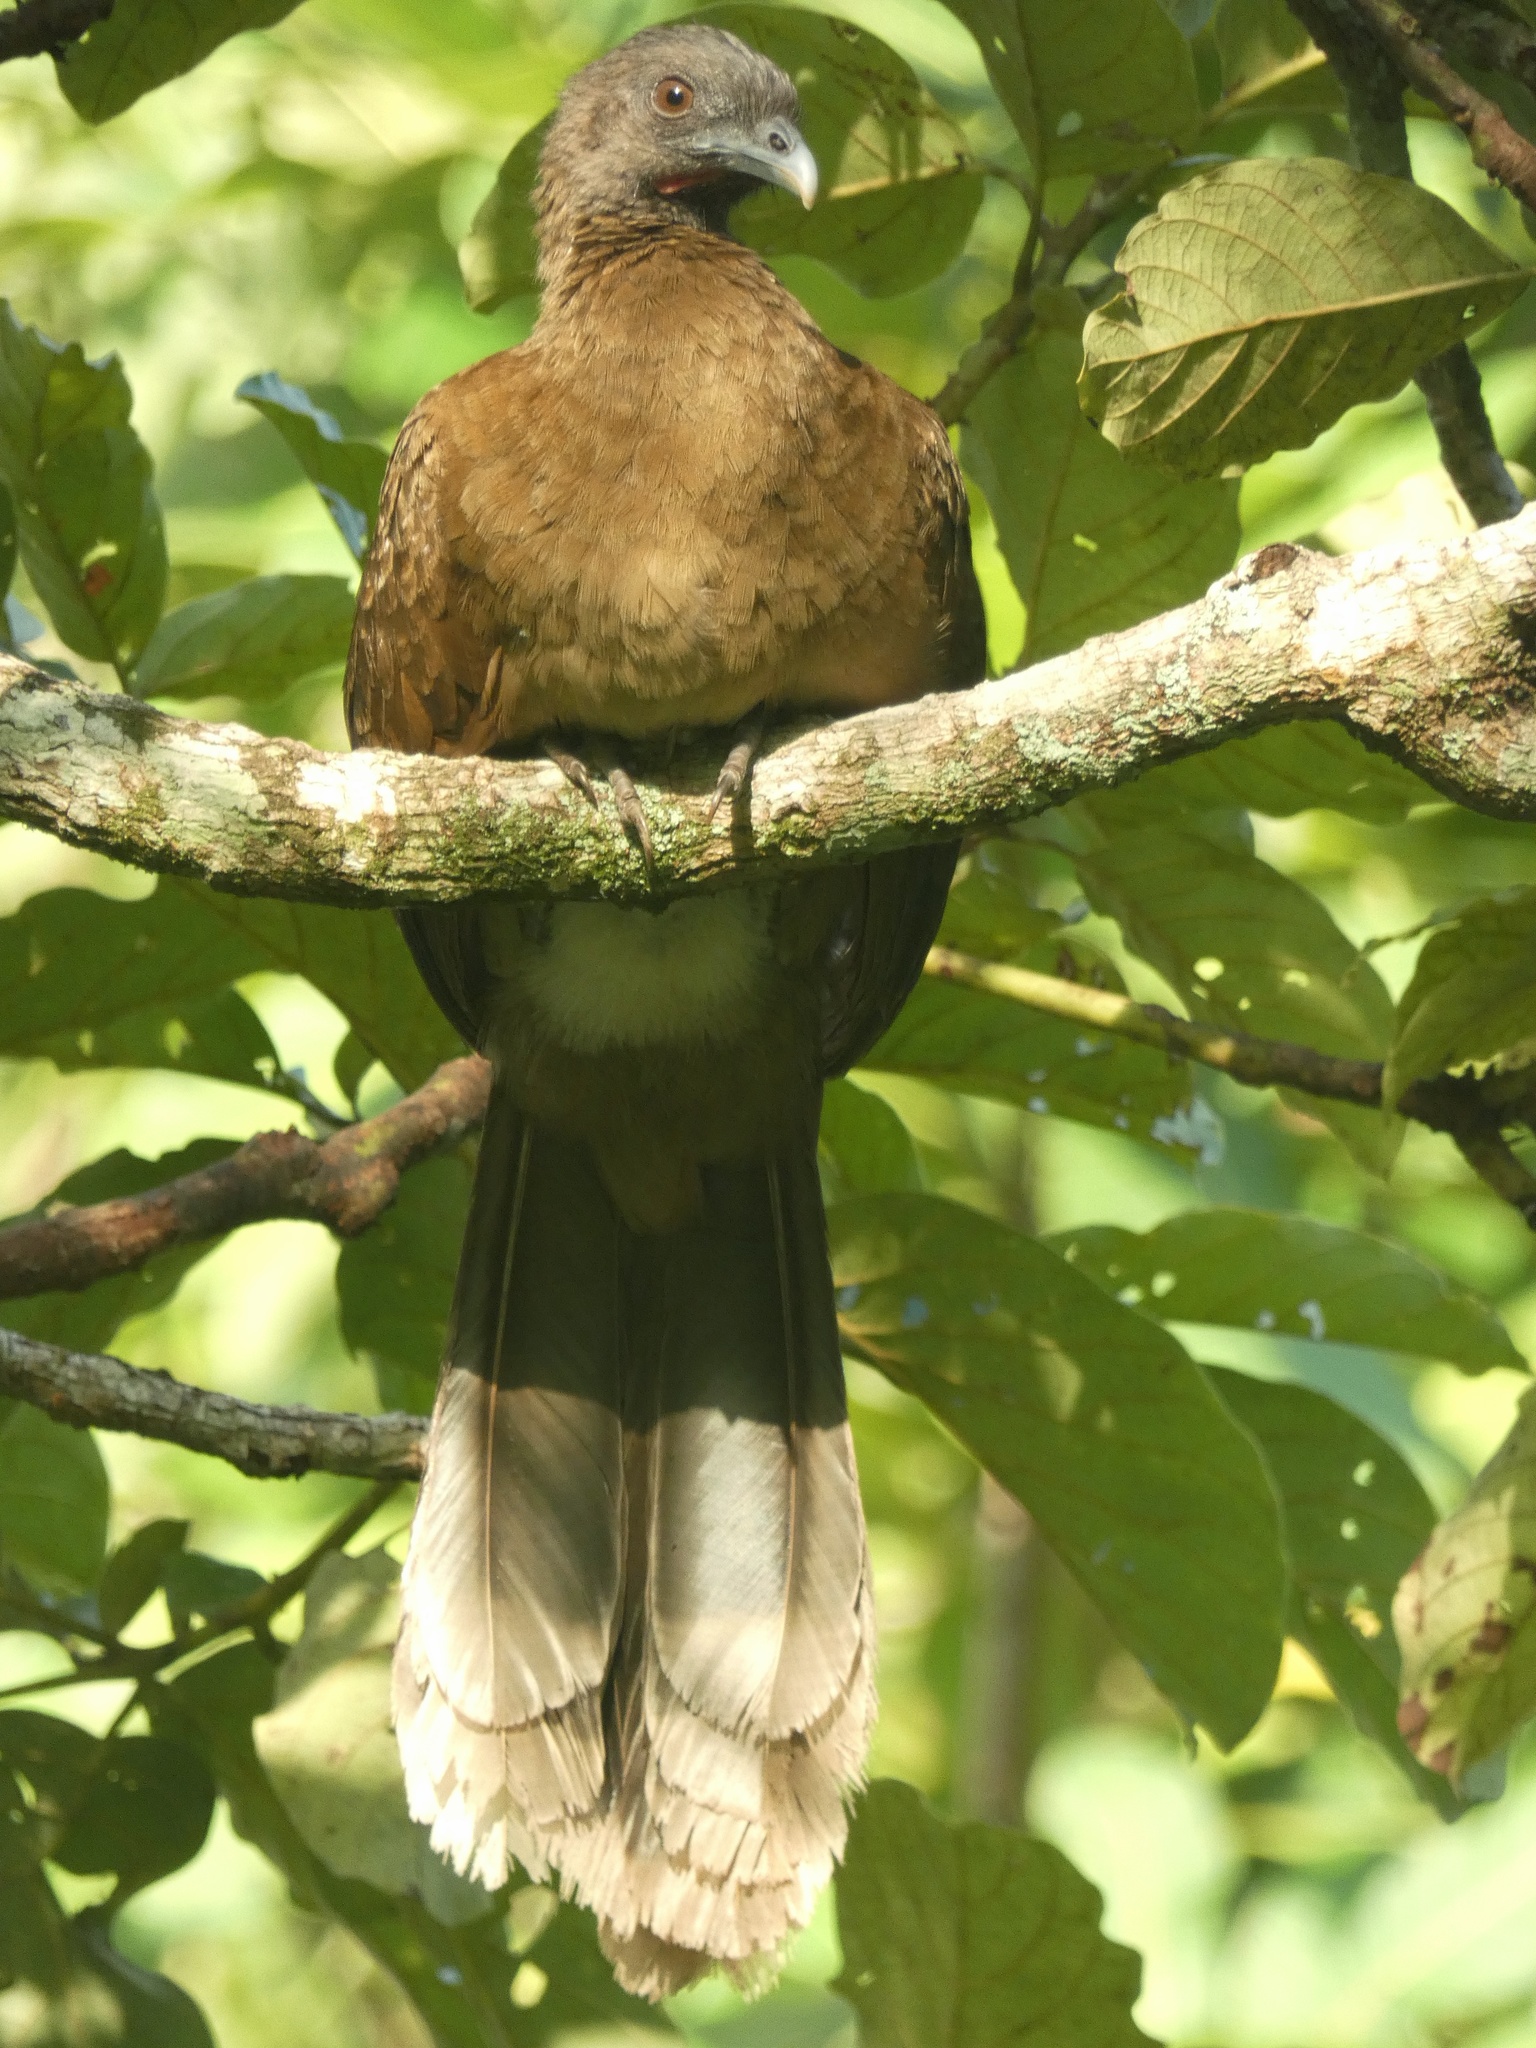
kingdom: Animalia
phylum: Chordata
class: Aves
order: Galliformes
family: Cracidae
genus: Ortalis
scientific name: Ortalis cinereiceps
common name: Grey-headed chachalaca
